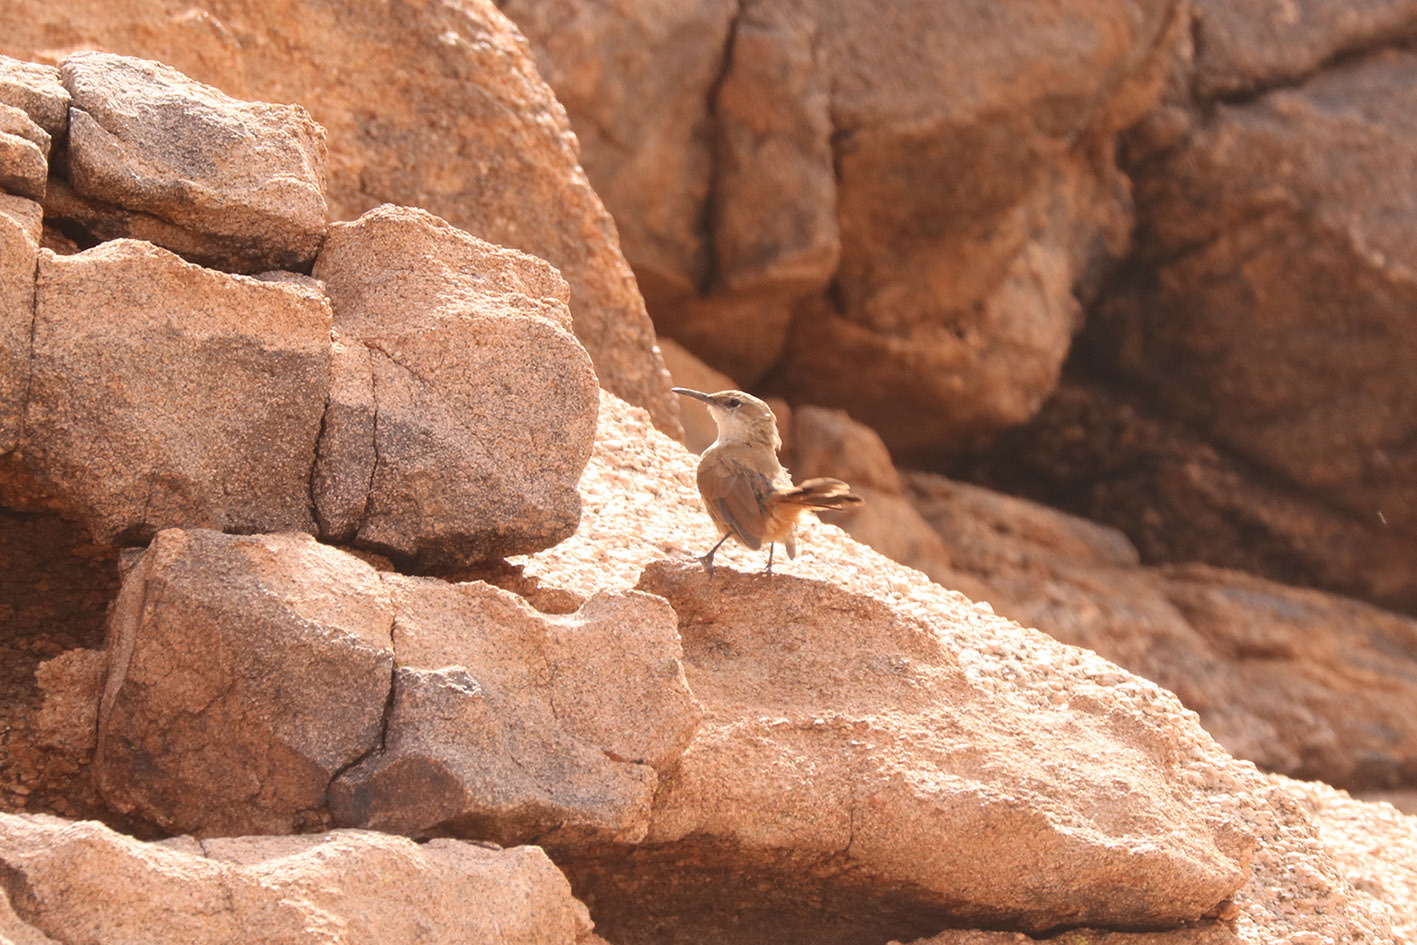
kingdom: Animalia
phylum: Chordata
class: Aves
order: Passeriformes
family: Furnariidae
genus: Upucerthia
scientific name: Upucerthia ruficaudus
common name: Straight-billed earthcreeper
